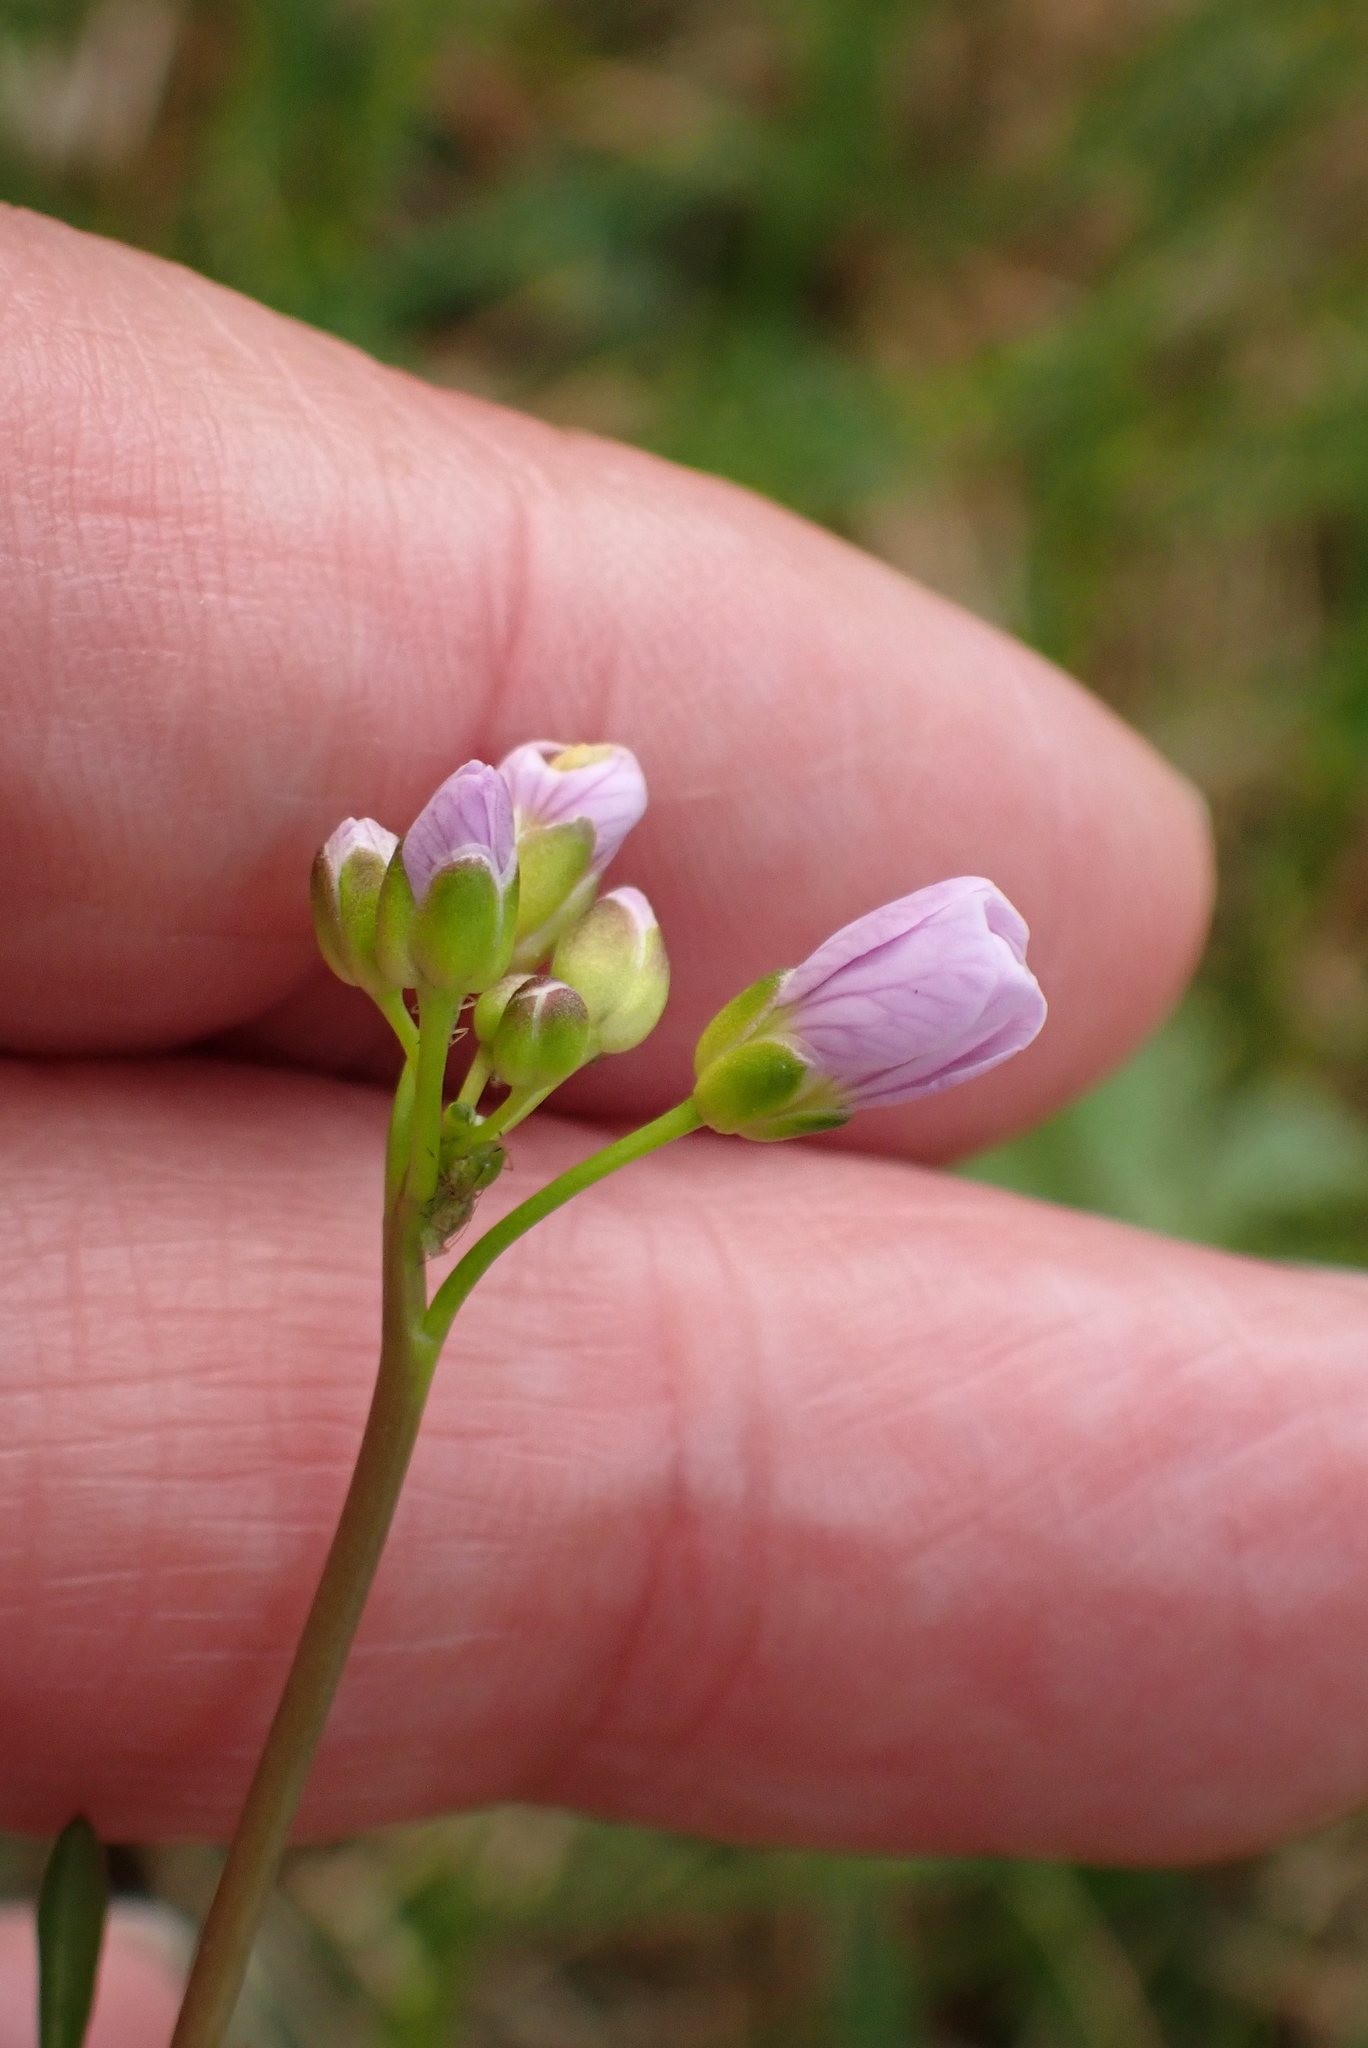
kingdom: Plantae
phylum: Tracheophyta
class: Magnoliopsida
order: Brassicales
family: Brassicaceae
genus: Cardamine
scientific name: Cardamine pratensis
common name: Cuckoo flower
